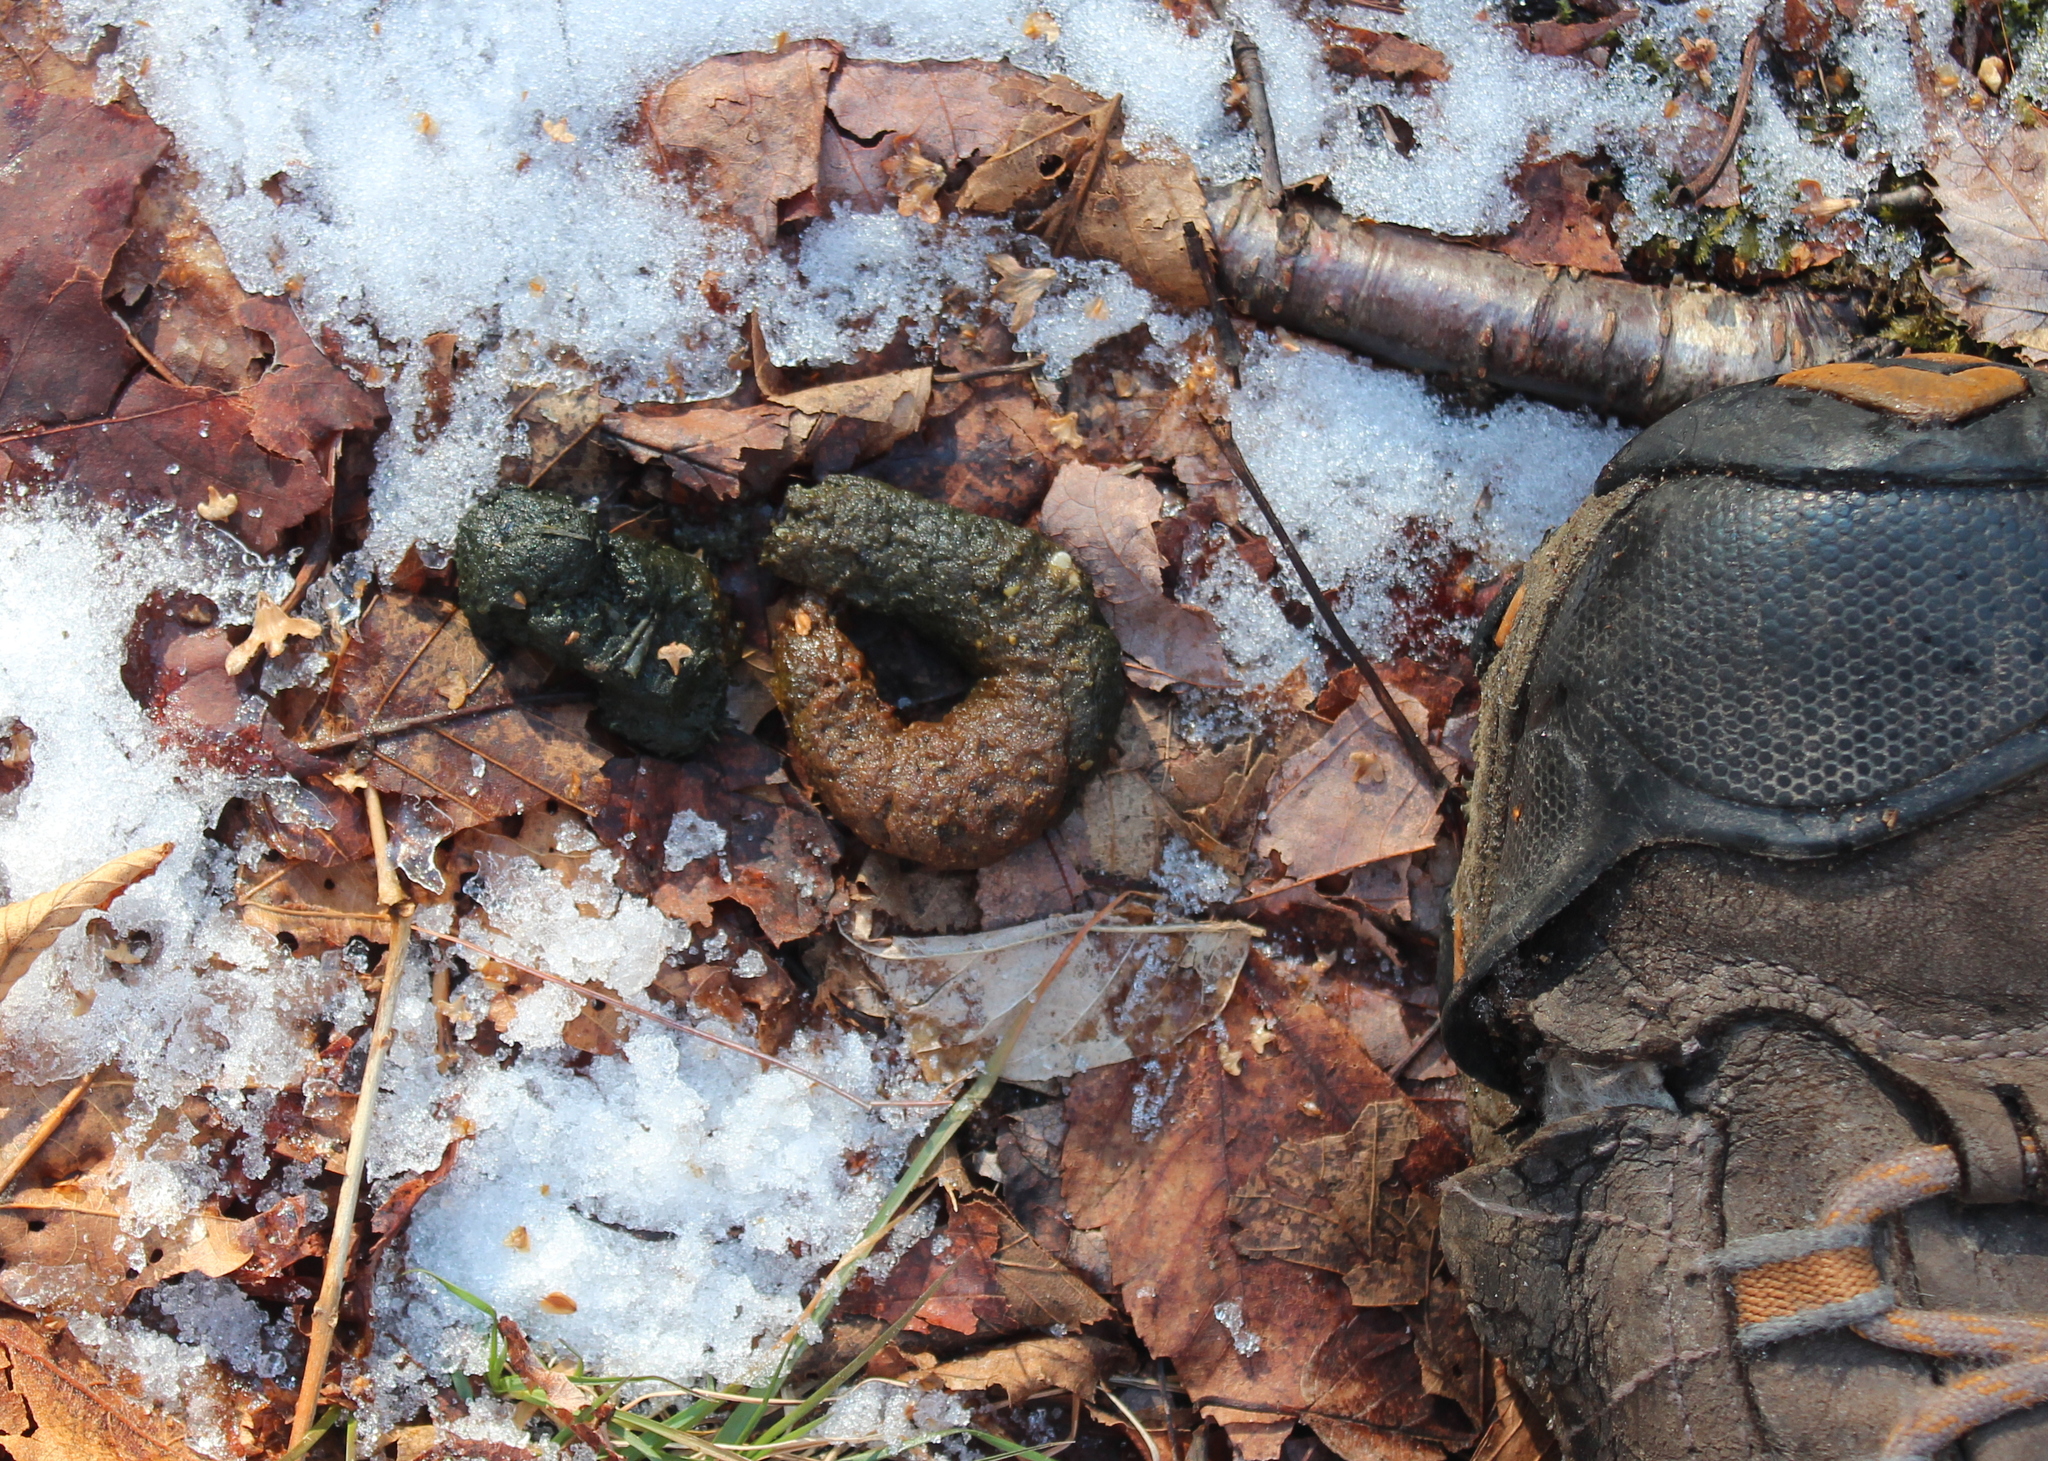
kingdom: Animalia
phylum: Chordata
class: Aves
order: Galliformes
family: Phasianidae
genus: Bonasa
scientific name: Bonasa umbellus
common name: Ruffed grouse
